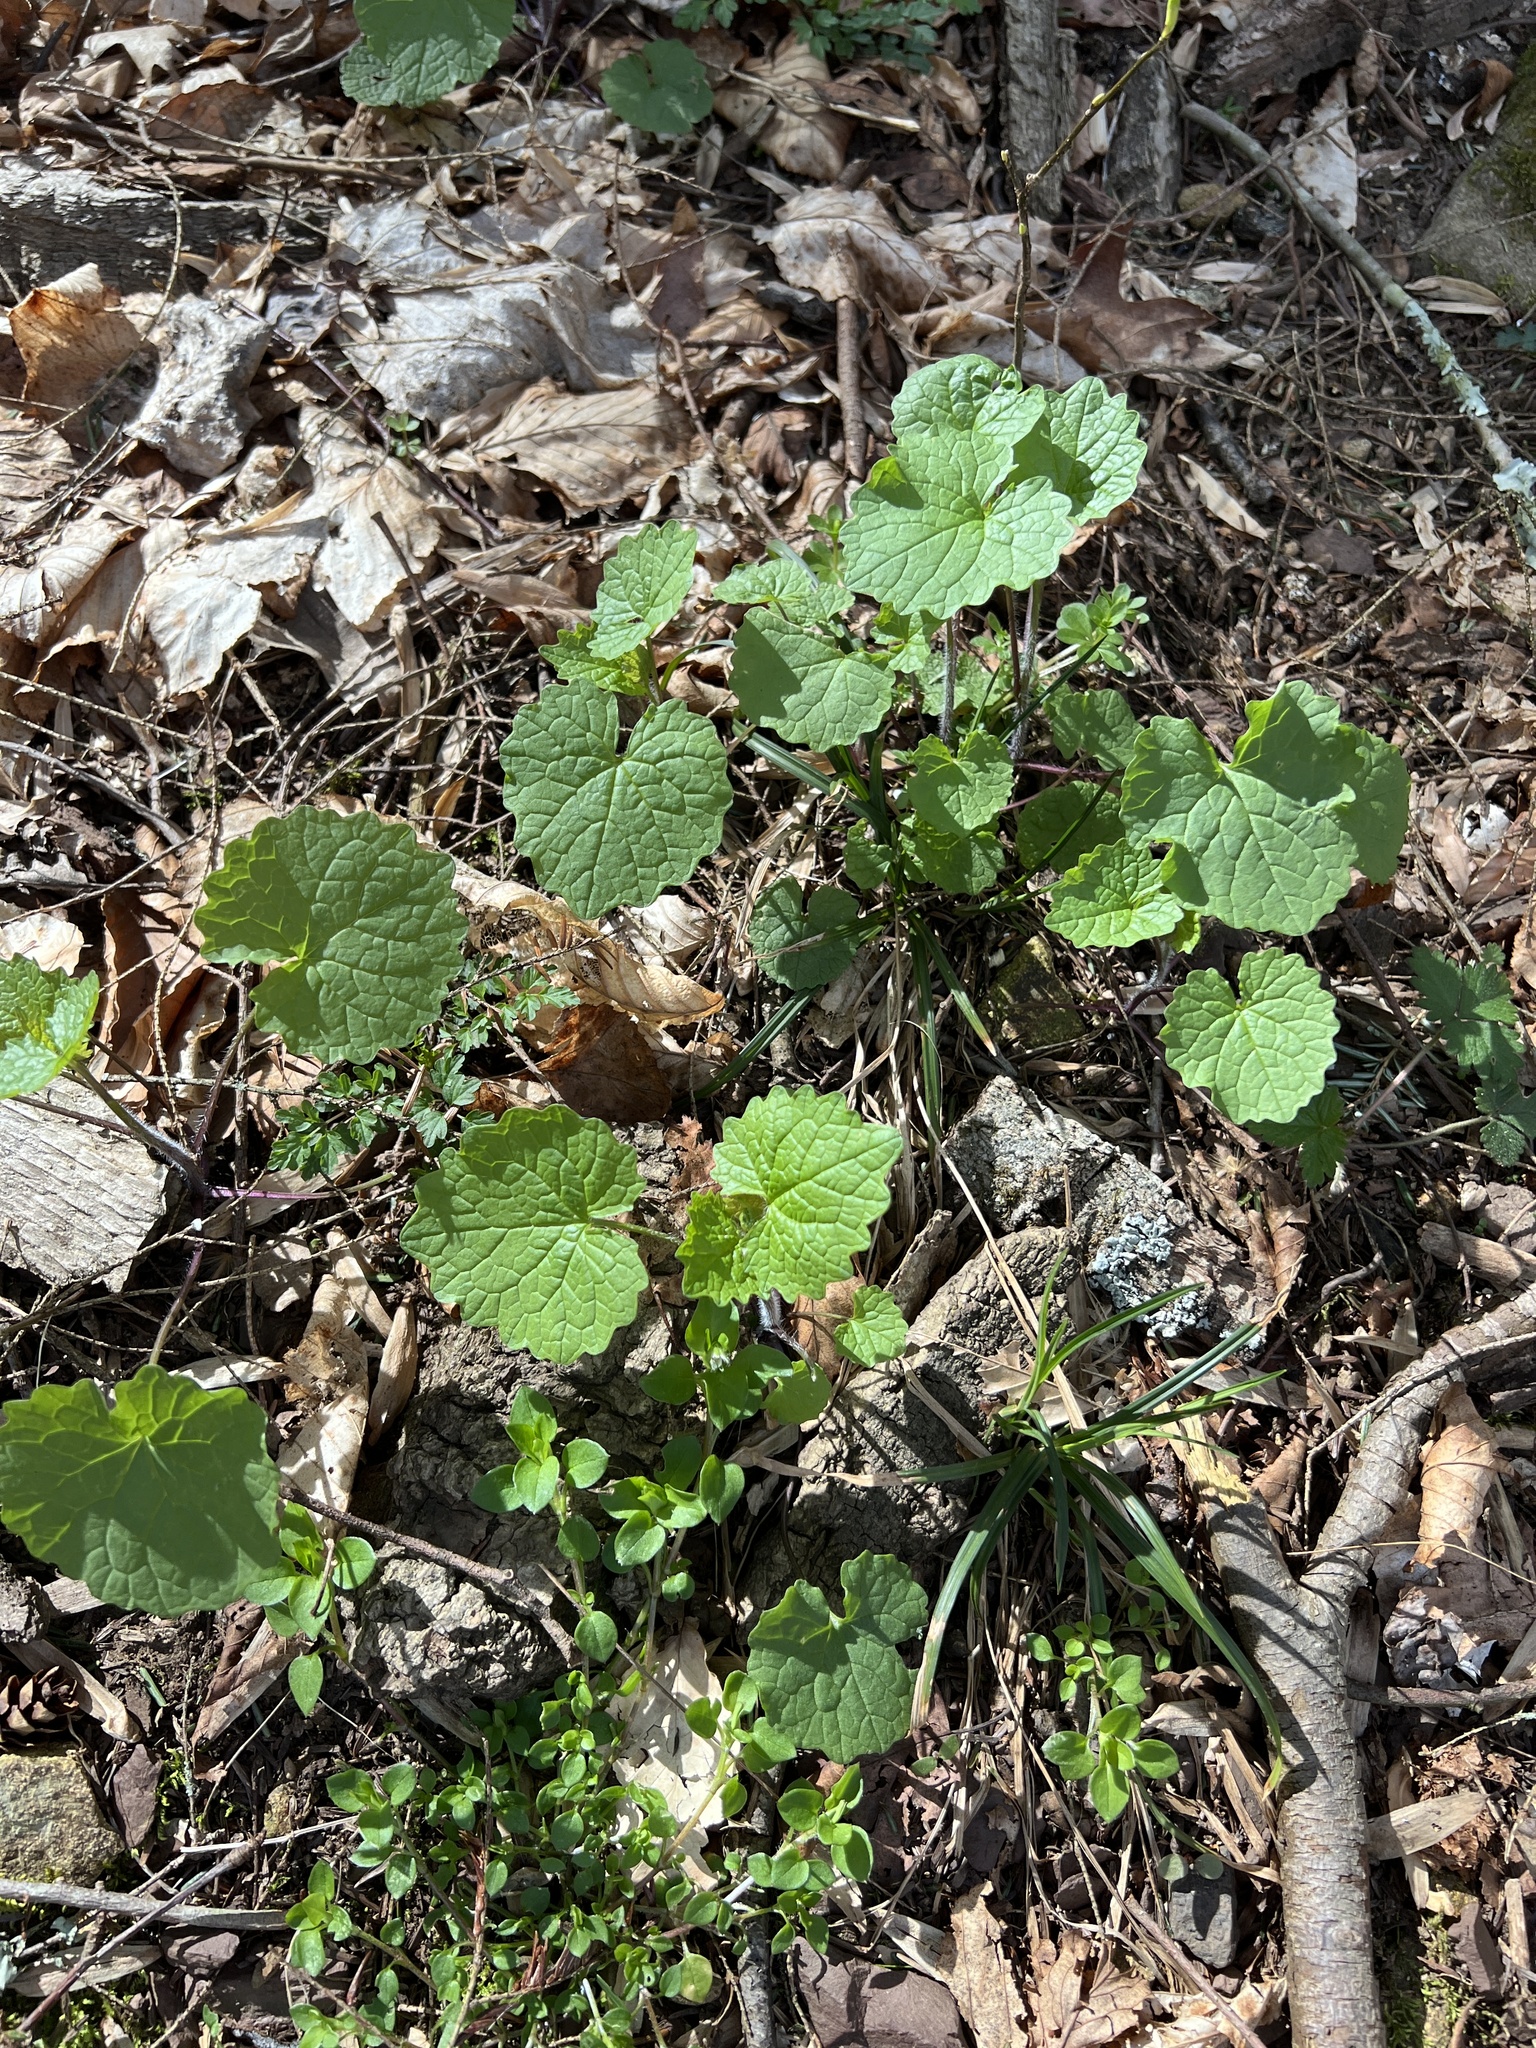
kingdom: Plantae
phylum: Tracheophyta
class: Magnoliopsida
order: Brassicales
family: Brassicaceae
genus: Alliaria
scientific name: Alliaria petiolata
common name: Garlic mustard
